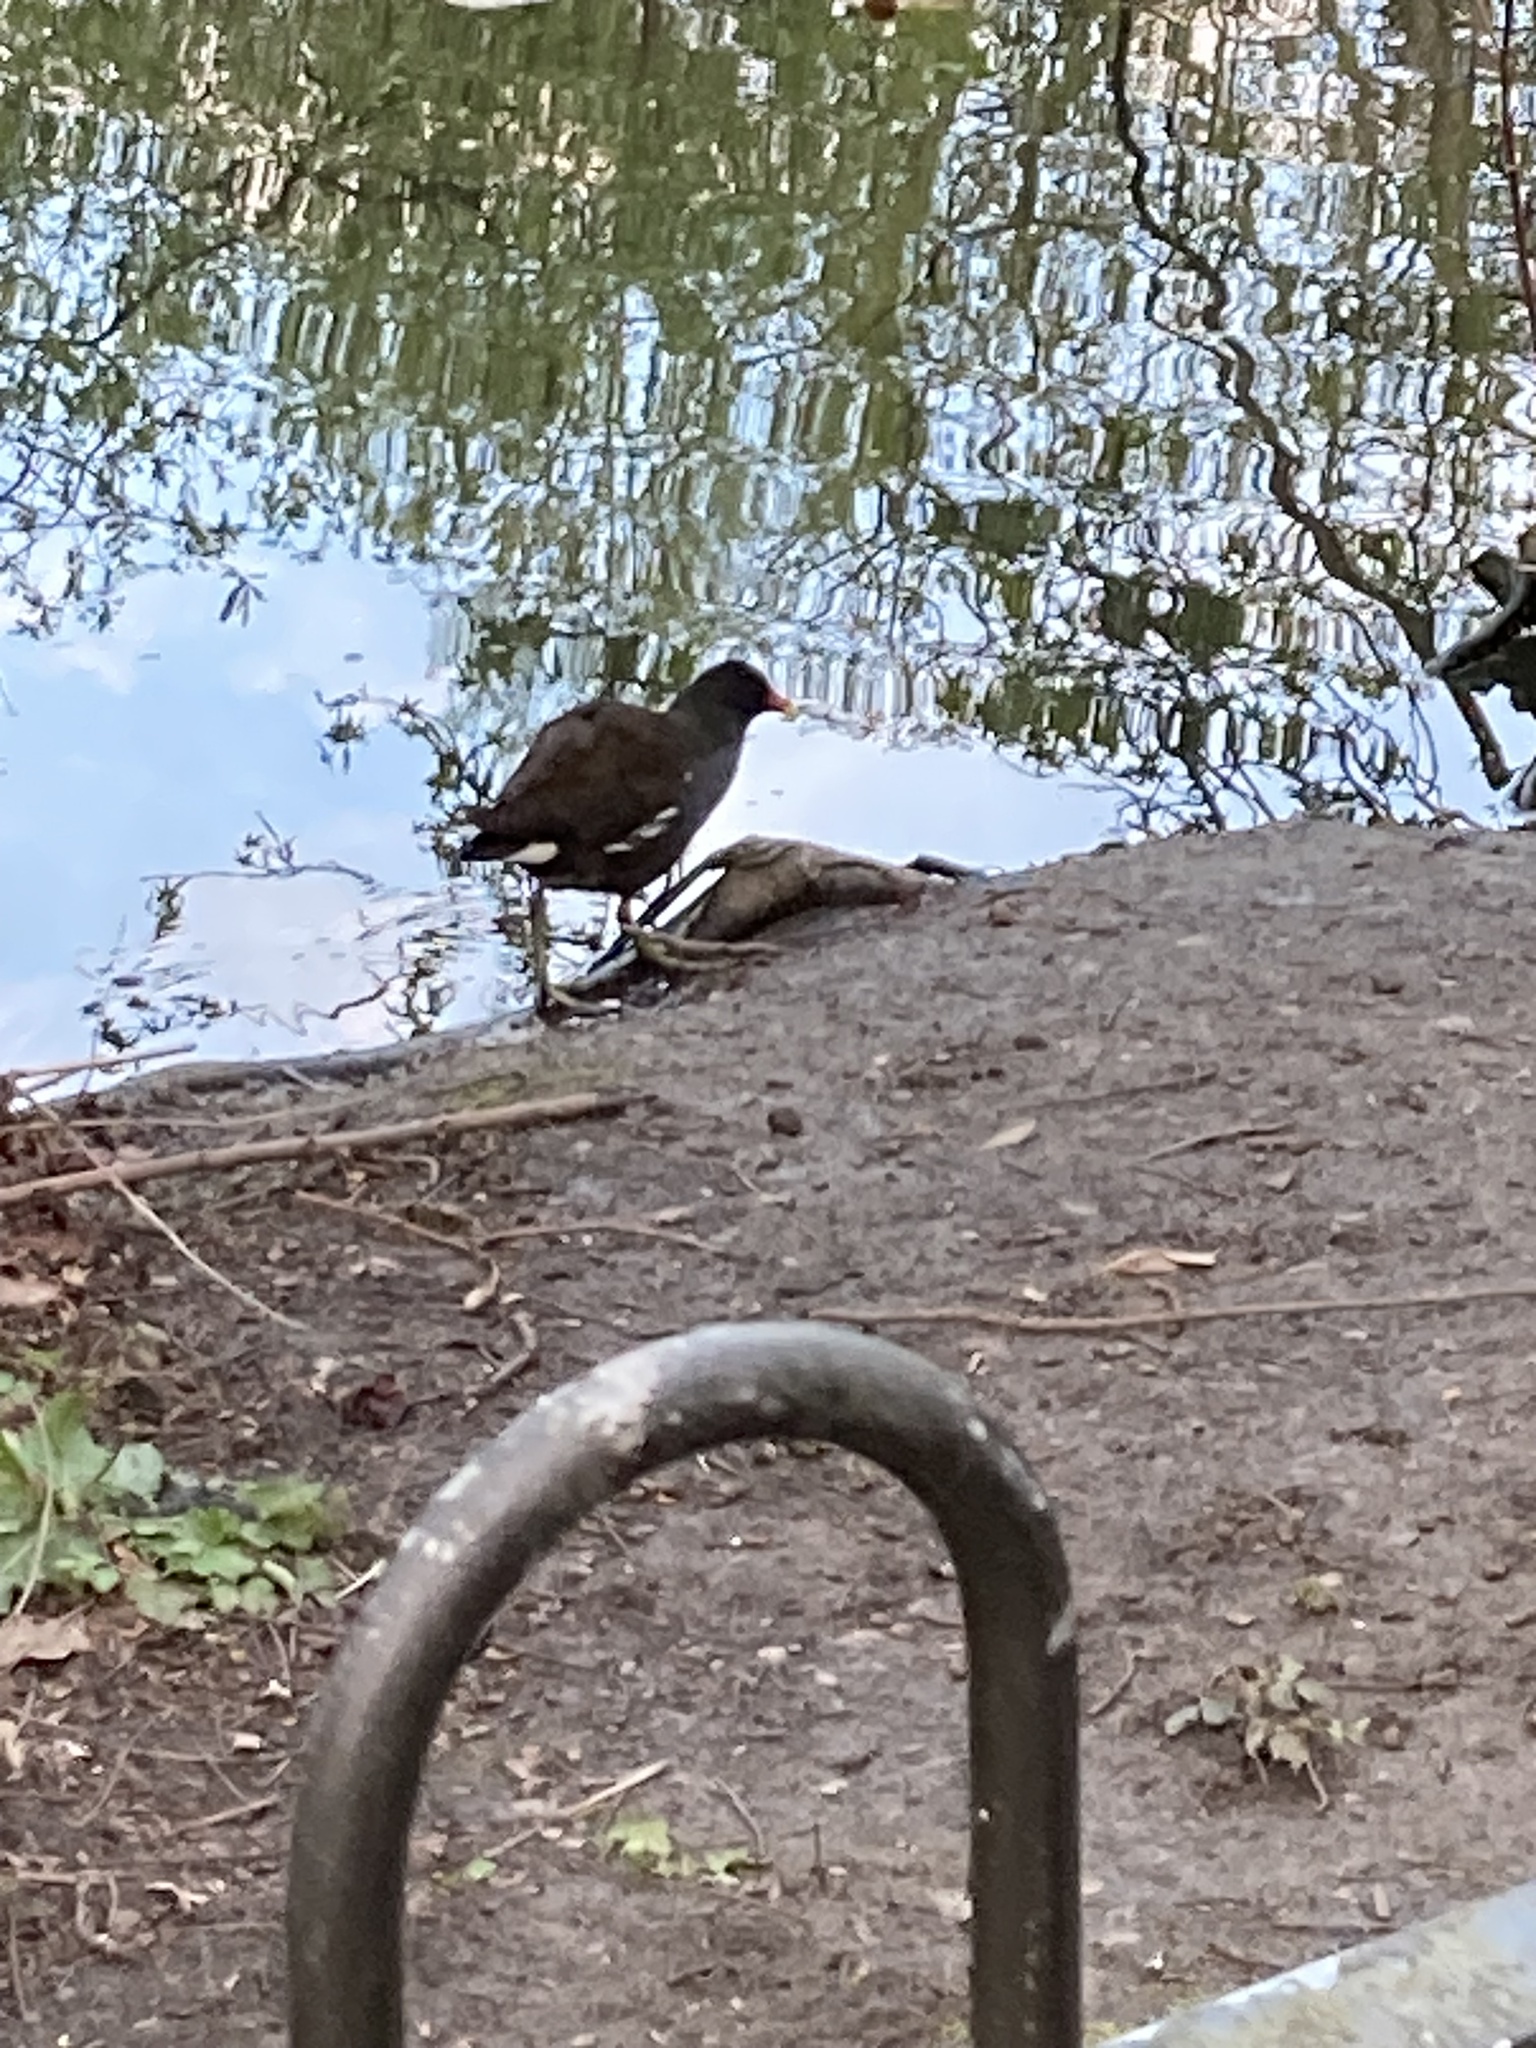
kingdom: Animalia
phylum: Chordata
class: Aves
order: Gruiformes
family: Rallidae
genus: Gallinula
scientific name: Gallinula chloropus
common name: Common moorhen
